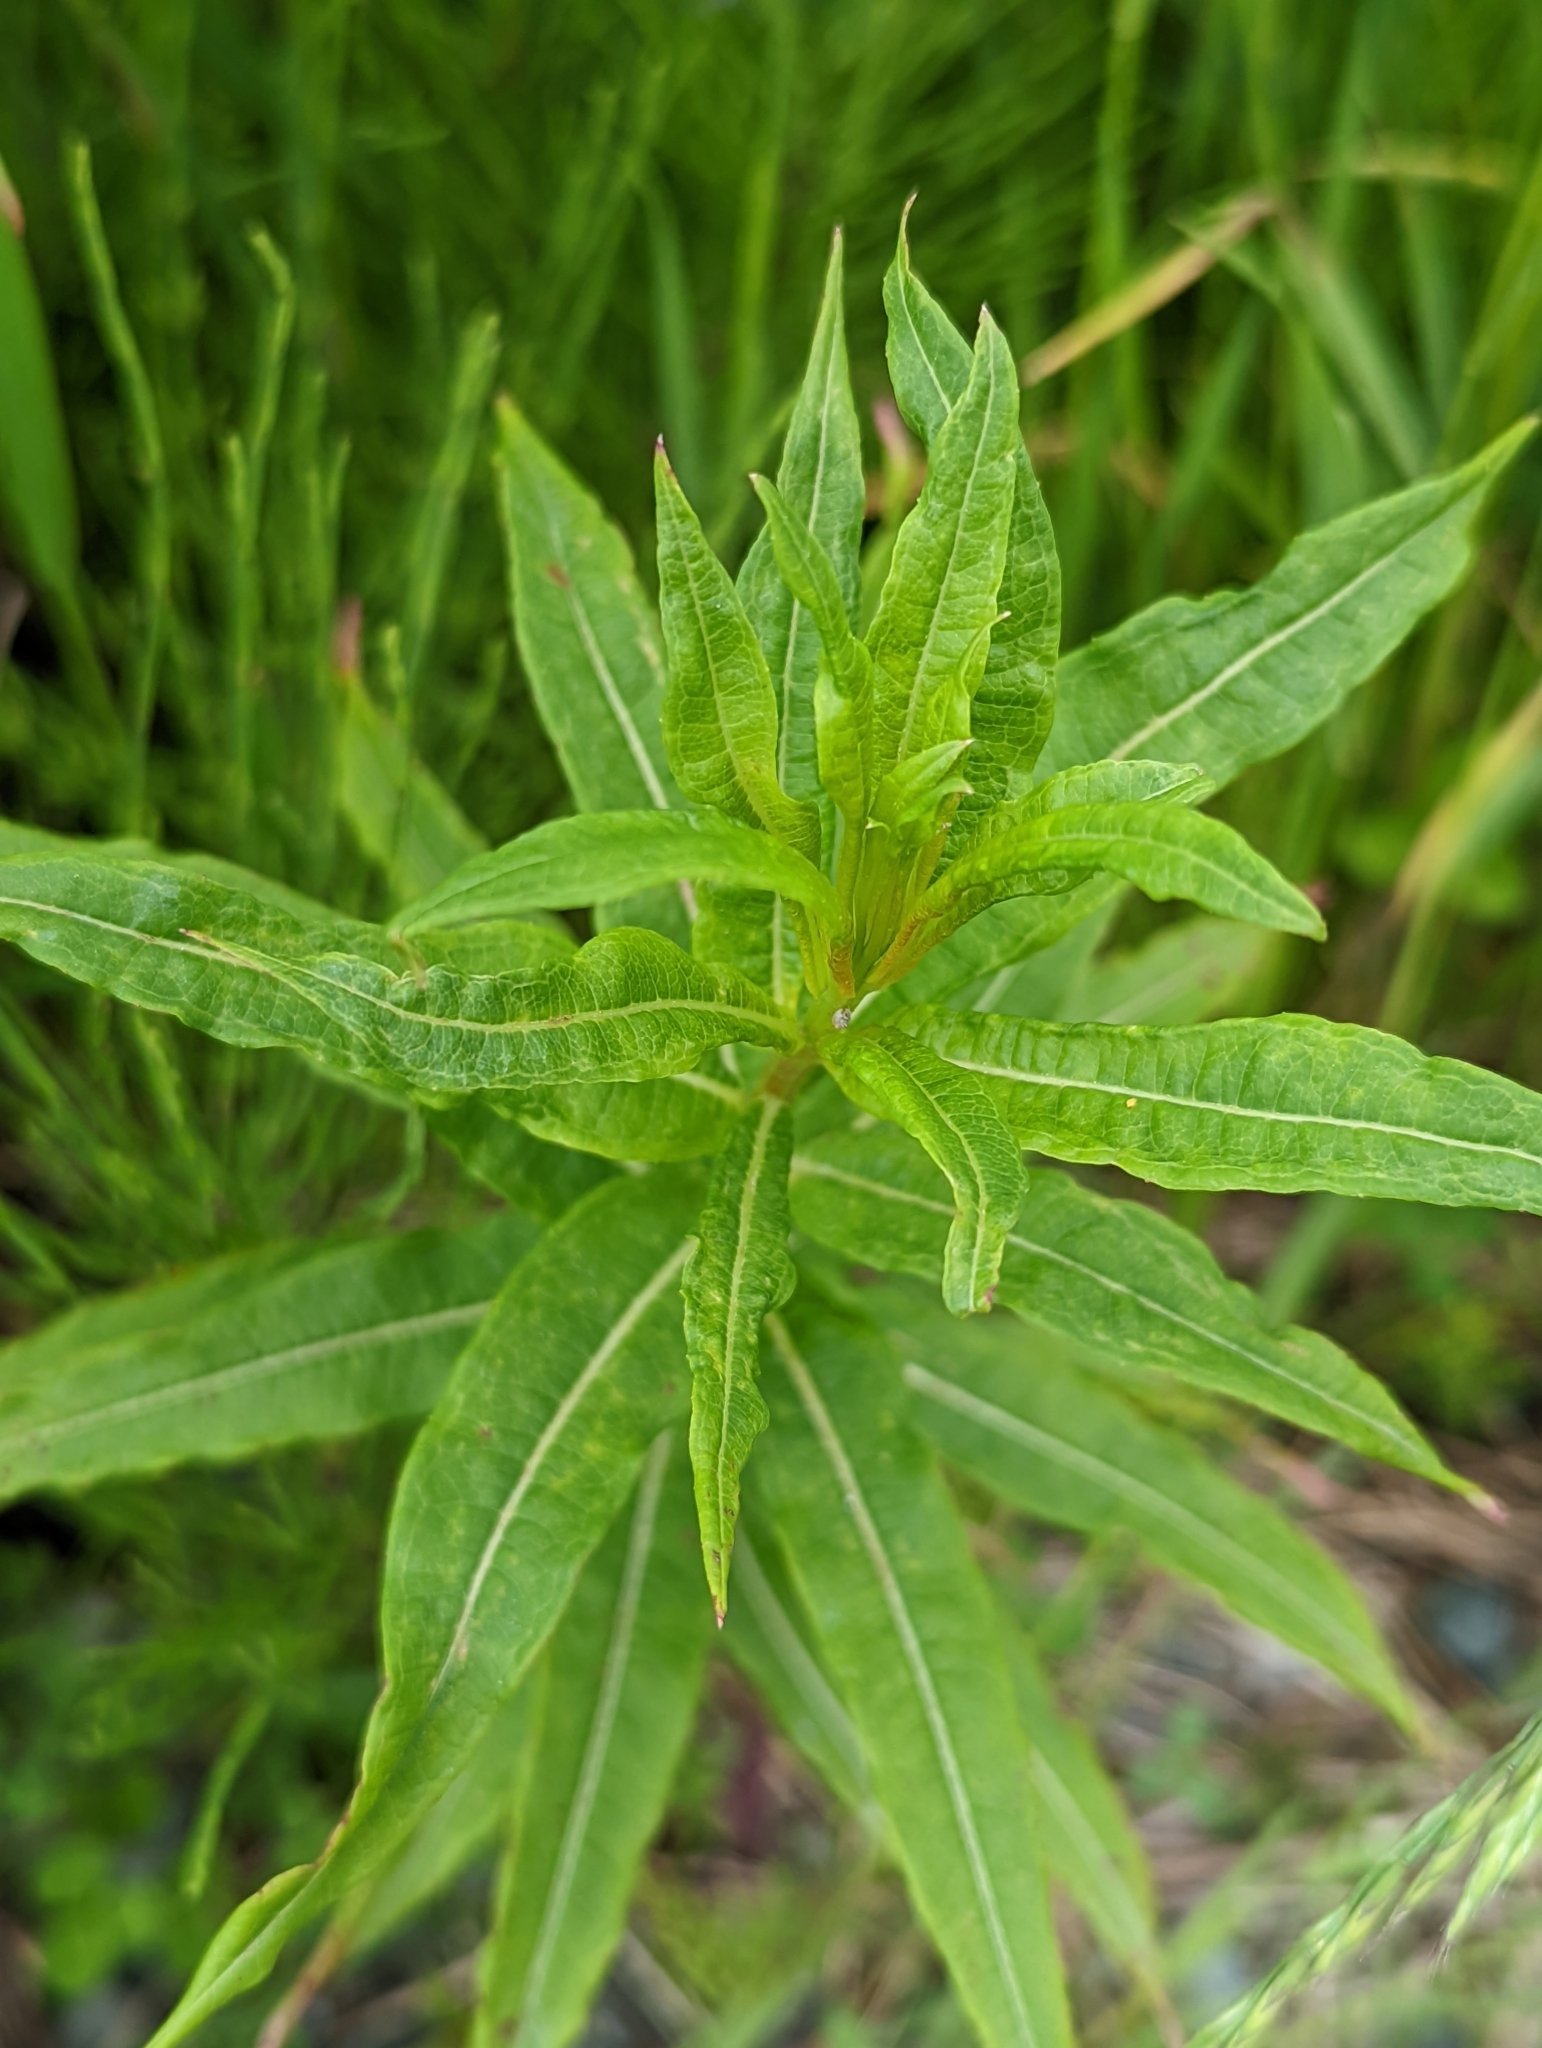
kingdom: Plantae
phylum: Tracheophyta
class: Magnoliopsida
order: Myrtales
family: Onagraceae
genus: Chamaenerion
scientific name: Chamaenerion angustifolium
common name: Fireweed
